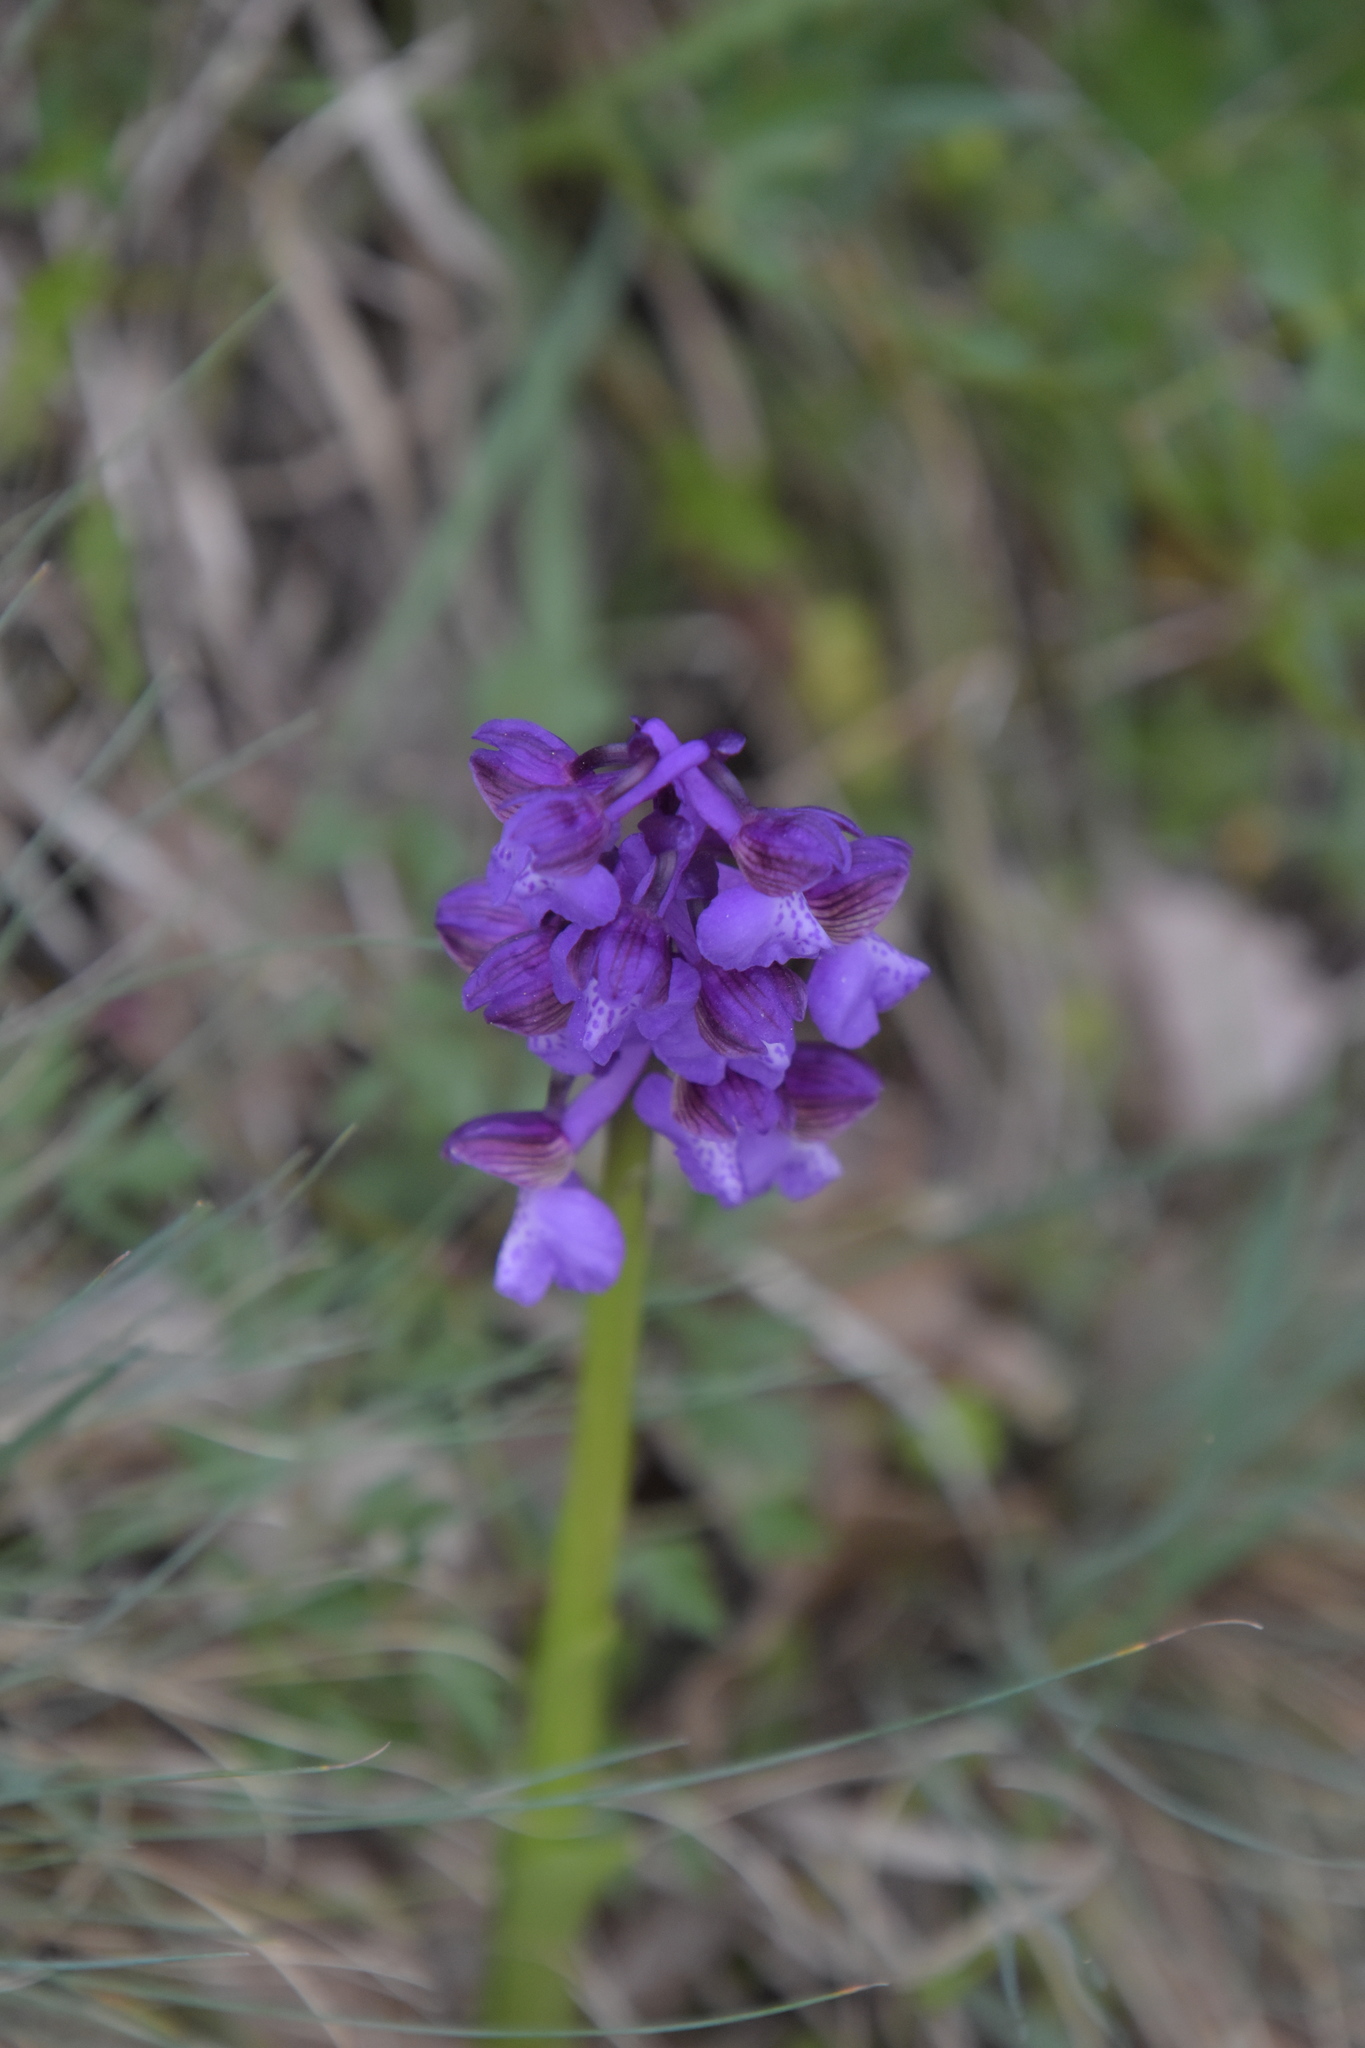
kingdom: Plantae
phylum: Tracheophyta
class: Liliopsida
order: Asparagales
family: Orchidaceae
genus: Anacamptis
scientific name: Anacamptis morio
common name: Green-winged orchid
